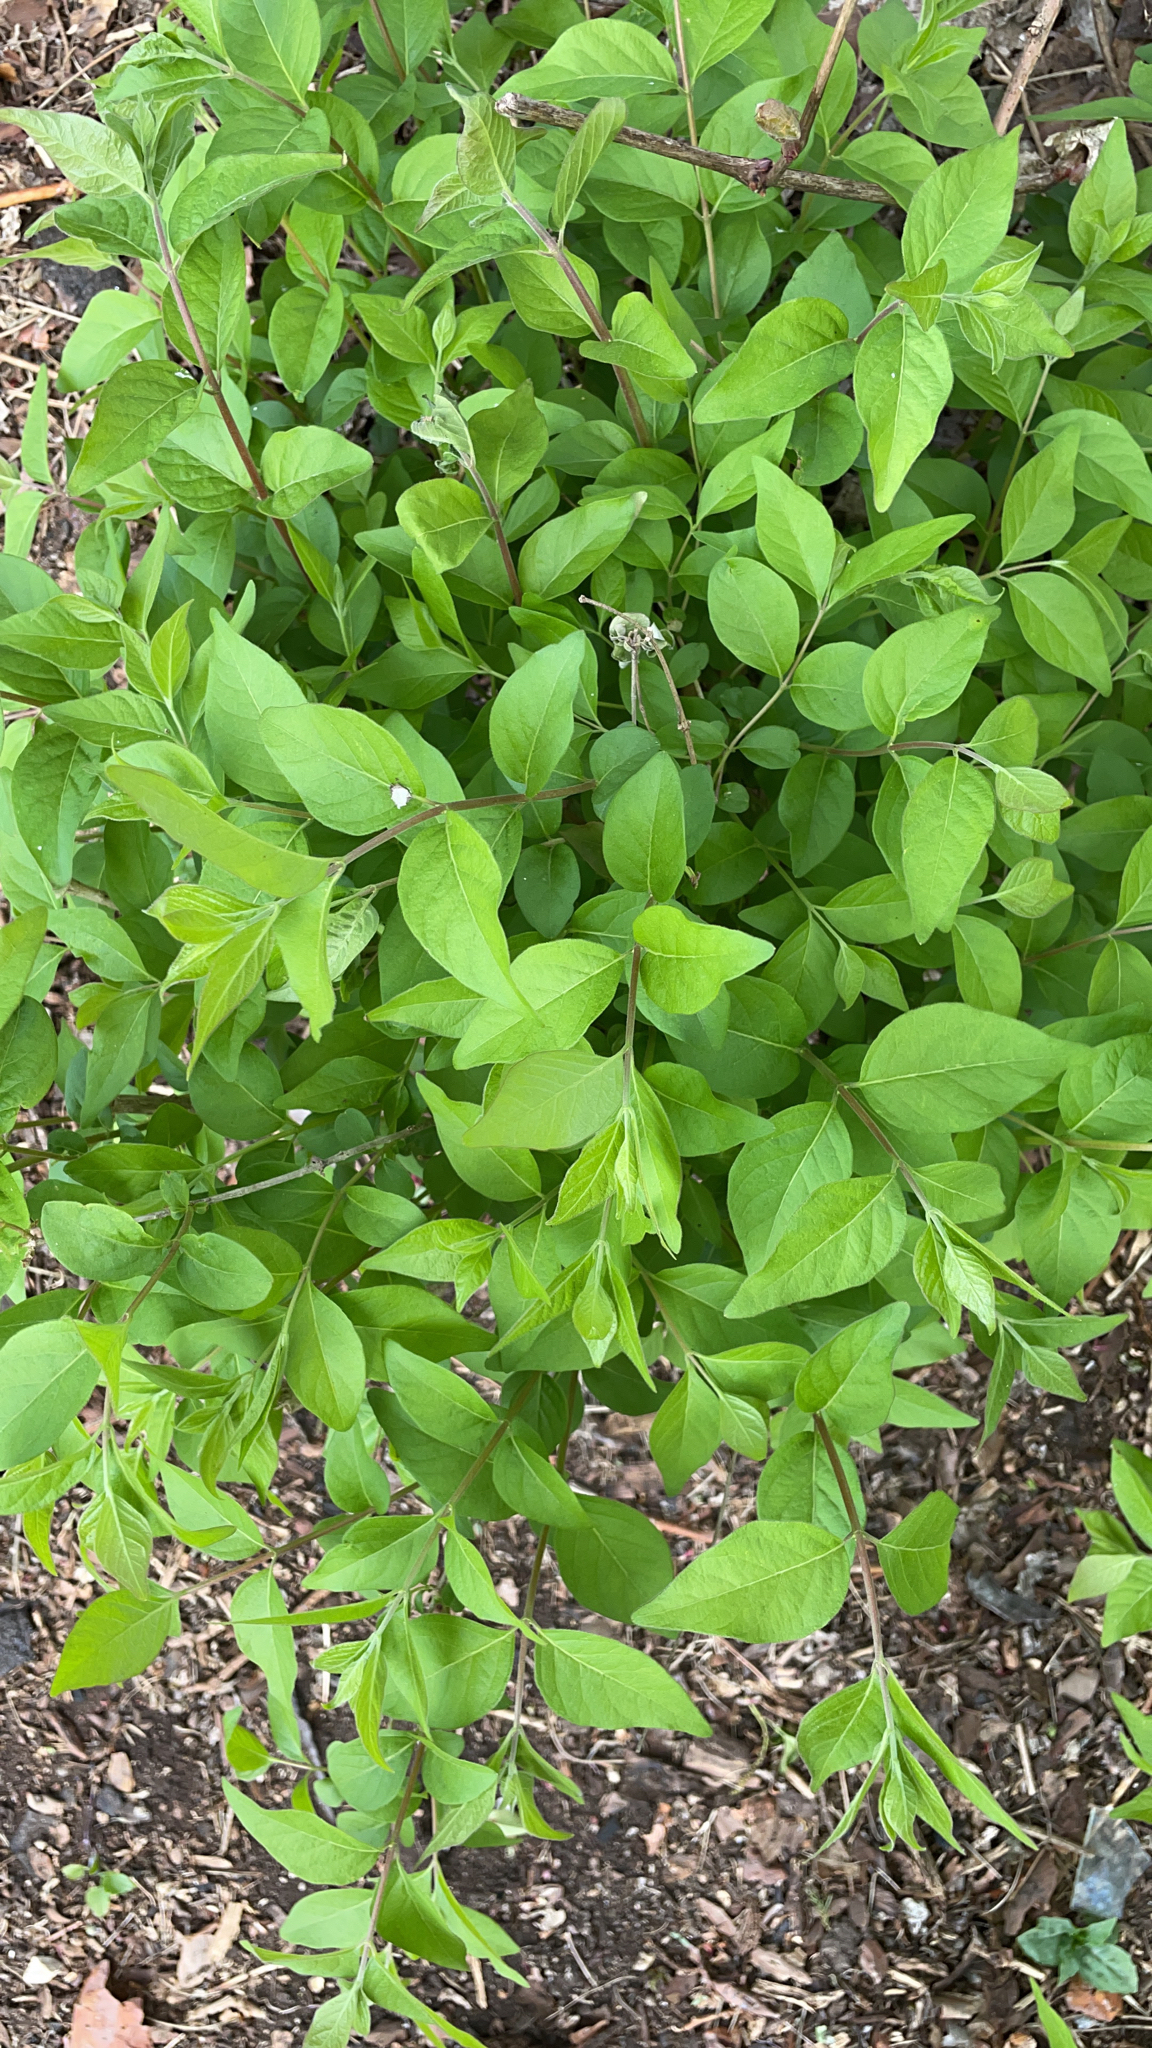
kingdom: Plantae
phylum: Tracheophyta
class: Magnoliopsida
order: Dipsacales
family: Caprifoliaceae
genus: Lonicera
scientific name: Lonicera maackii
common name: Amur honeysuckle
